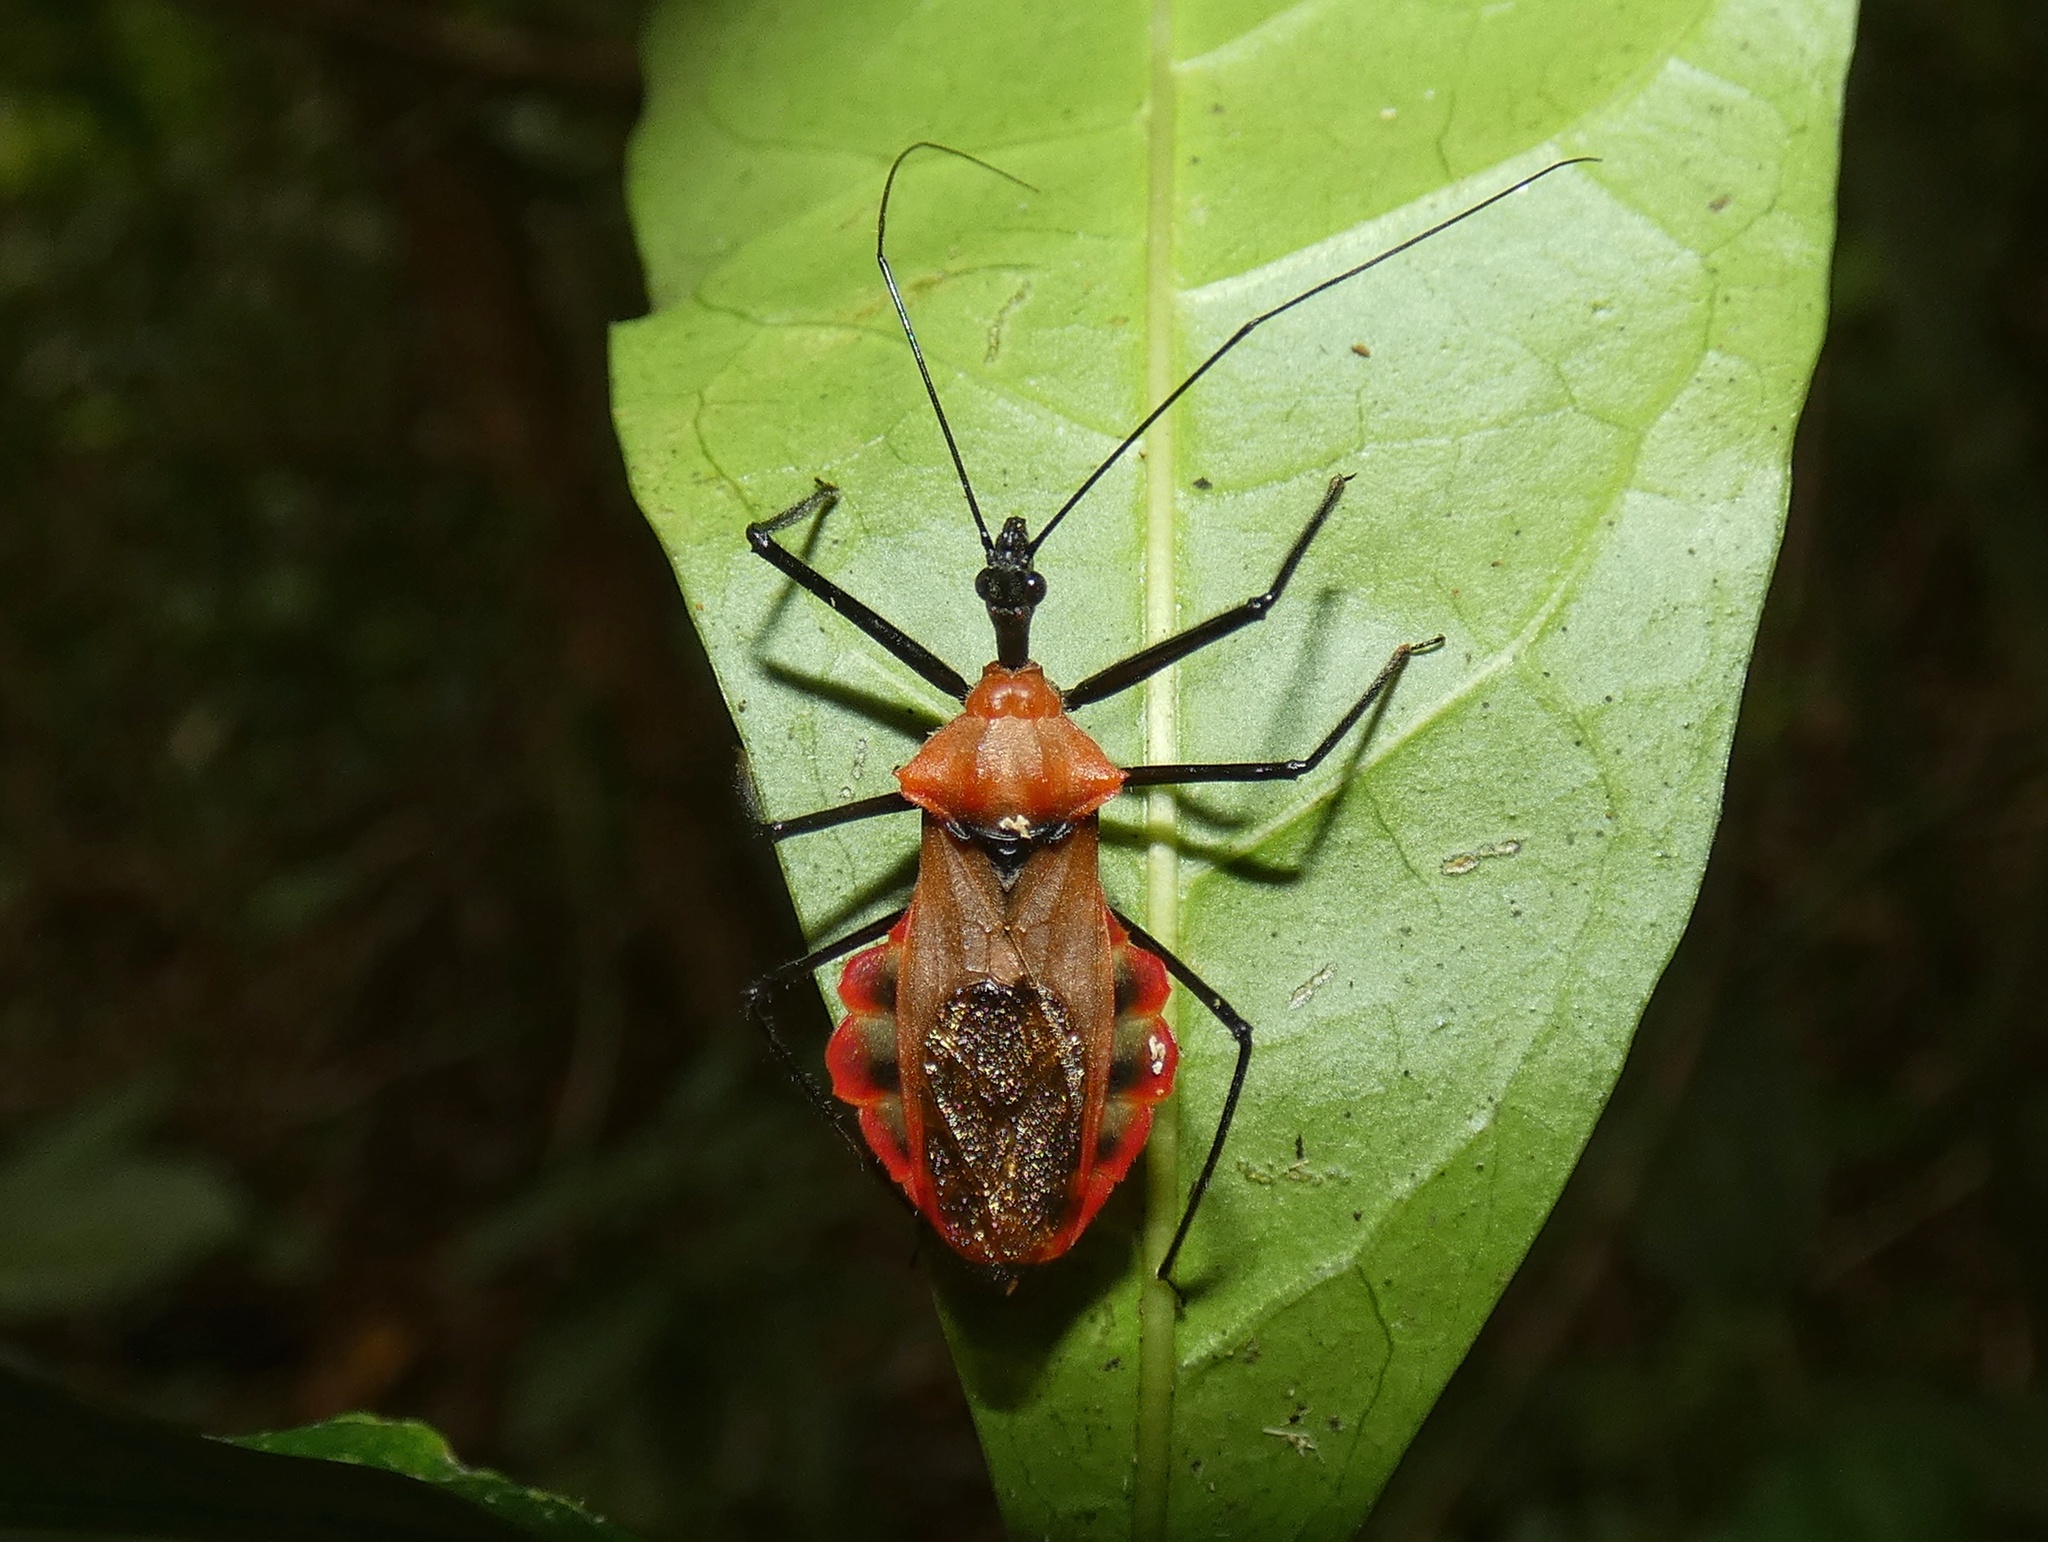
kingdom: Animalia
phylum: Arthropoda
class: Insecta
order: Hemiptera
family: Reduviidae
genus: Montina
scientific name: Montina scutellaris
